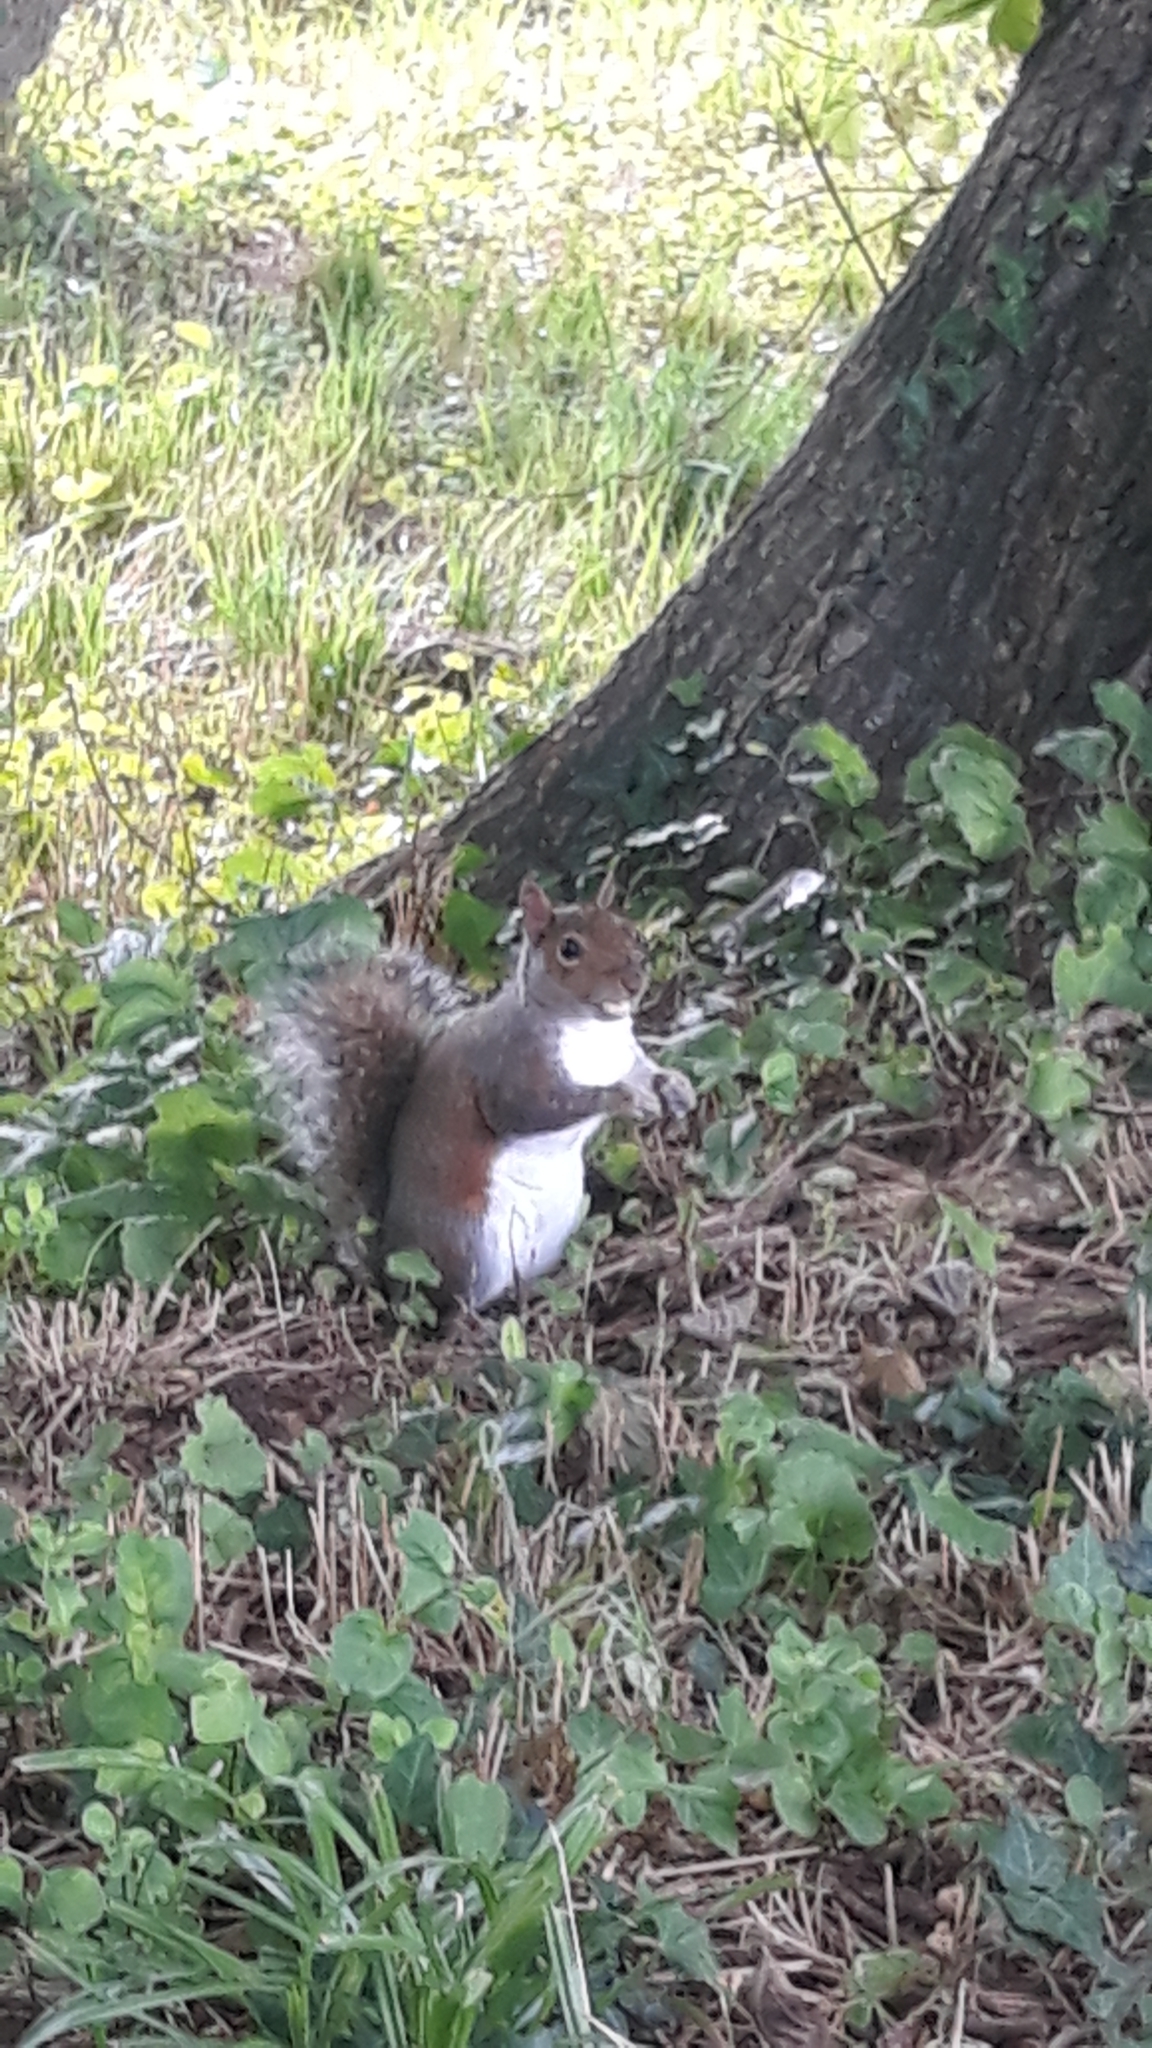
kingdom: Animalia
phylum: Chordata
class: Mammalia
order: Rodentia
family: Sciuridae
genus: Sciurus
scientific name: Sciurus carolinensis
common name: Eastern gray squirrel
